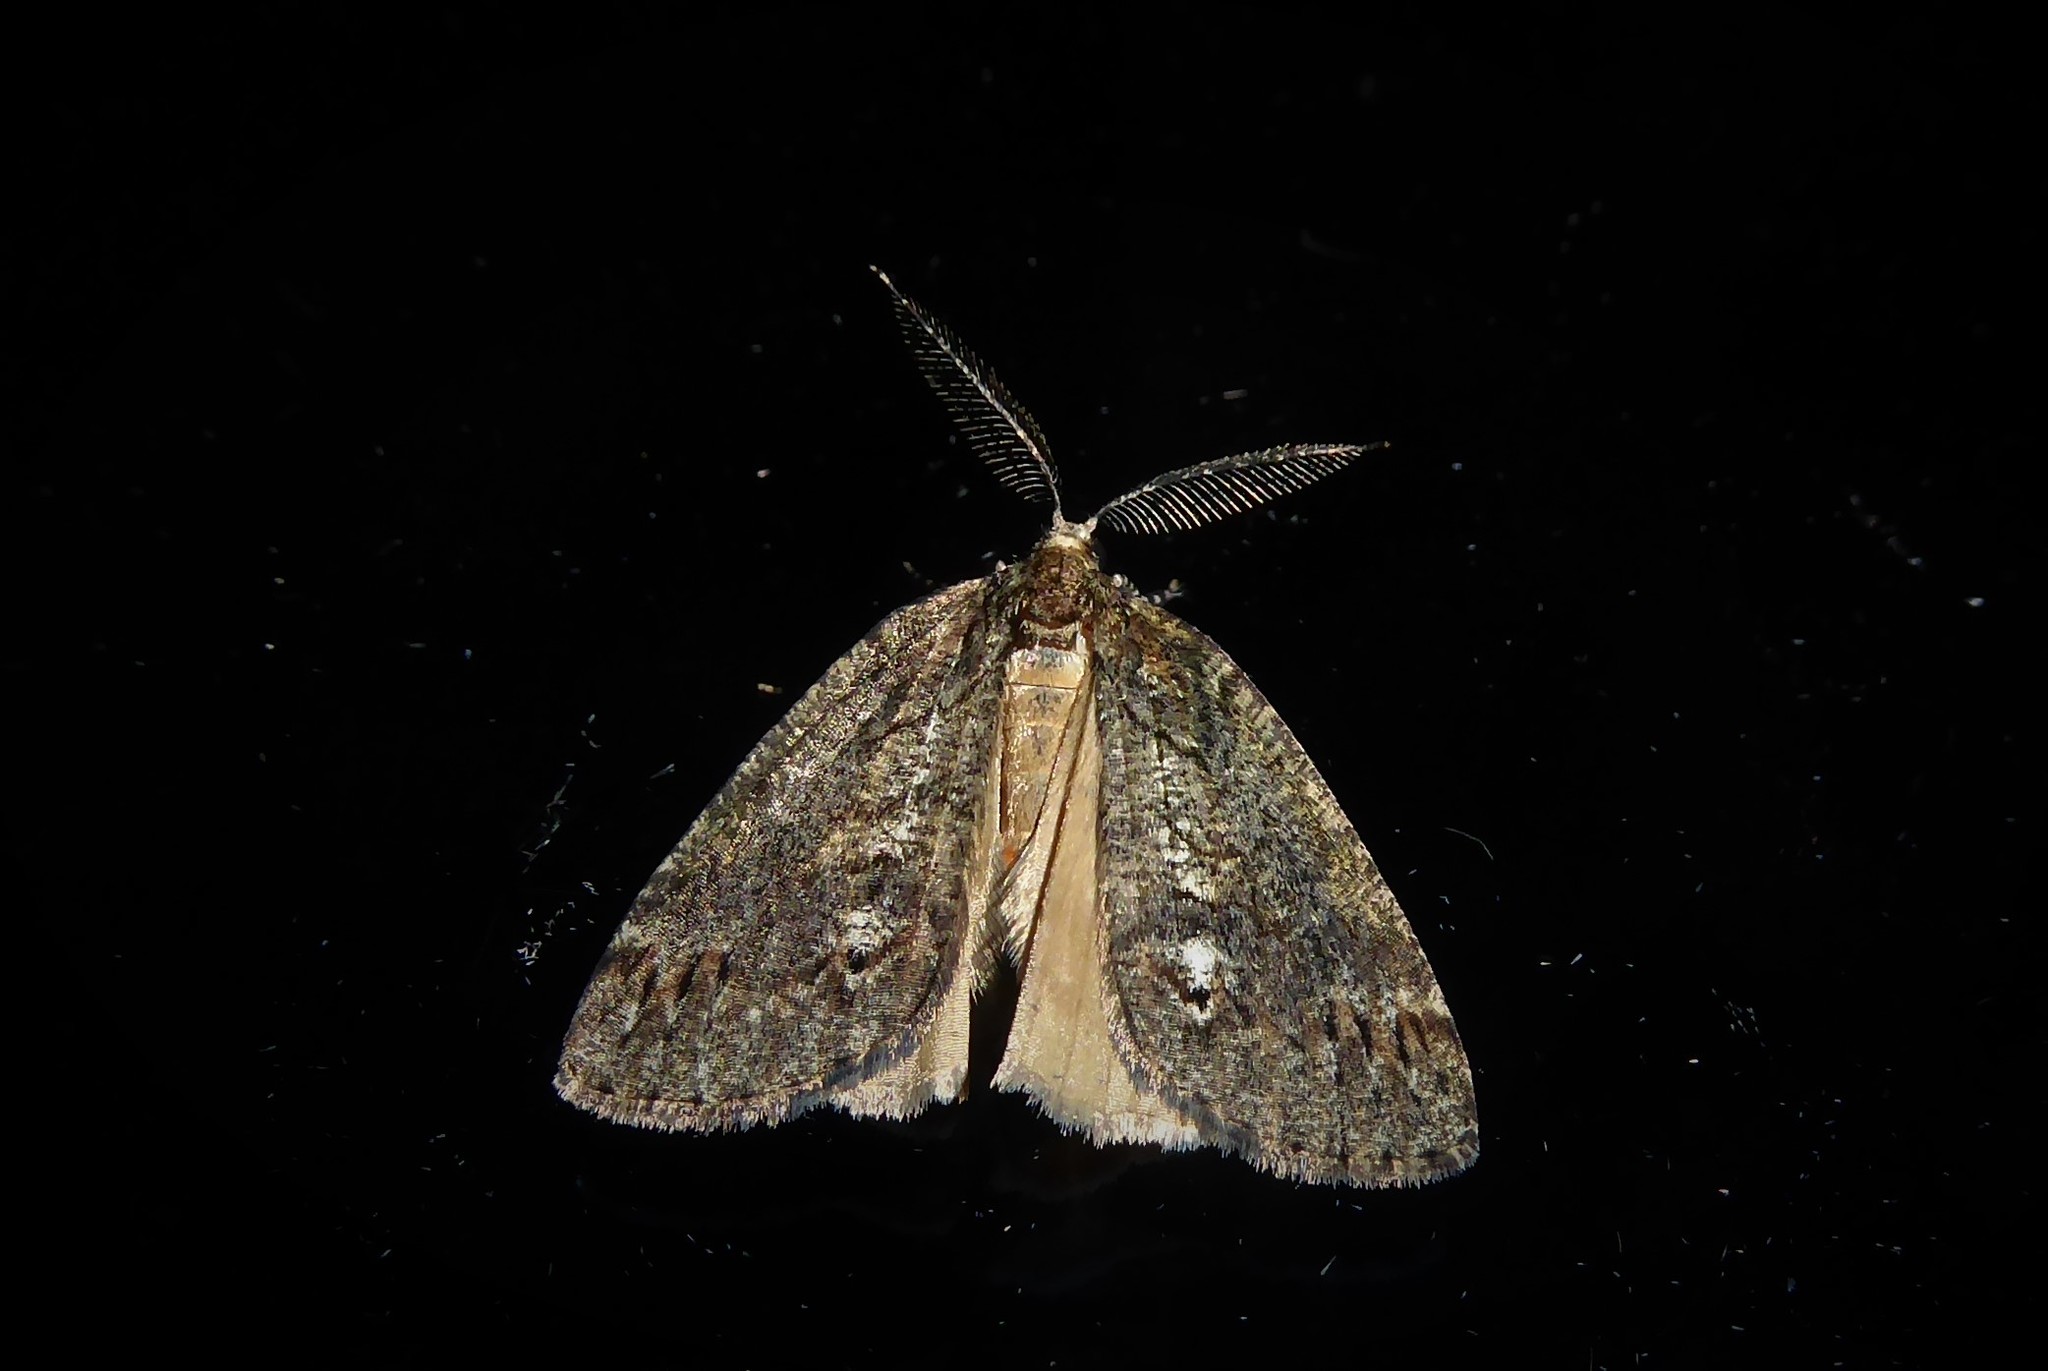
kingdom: Animalia
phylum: Arthropoda
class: Insecta
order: Lepidoptera
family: Geometridae
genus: Chalastra
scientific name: Chalastra ochrea
